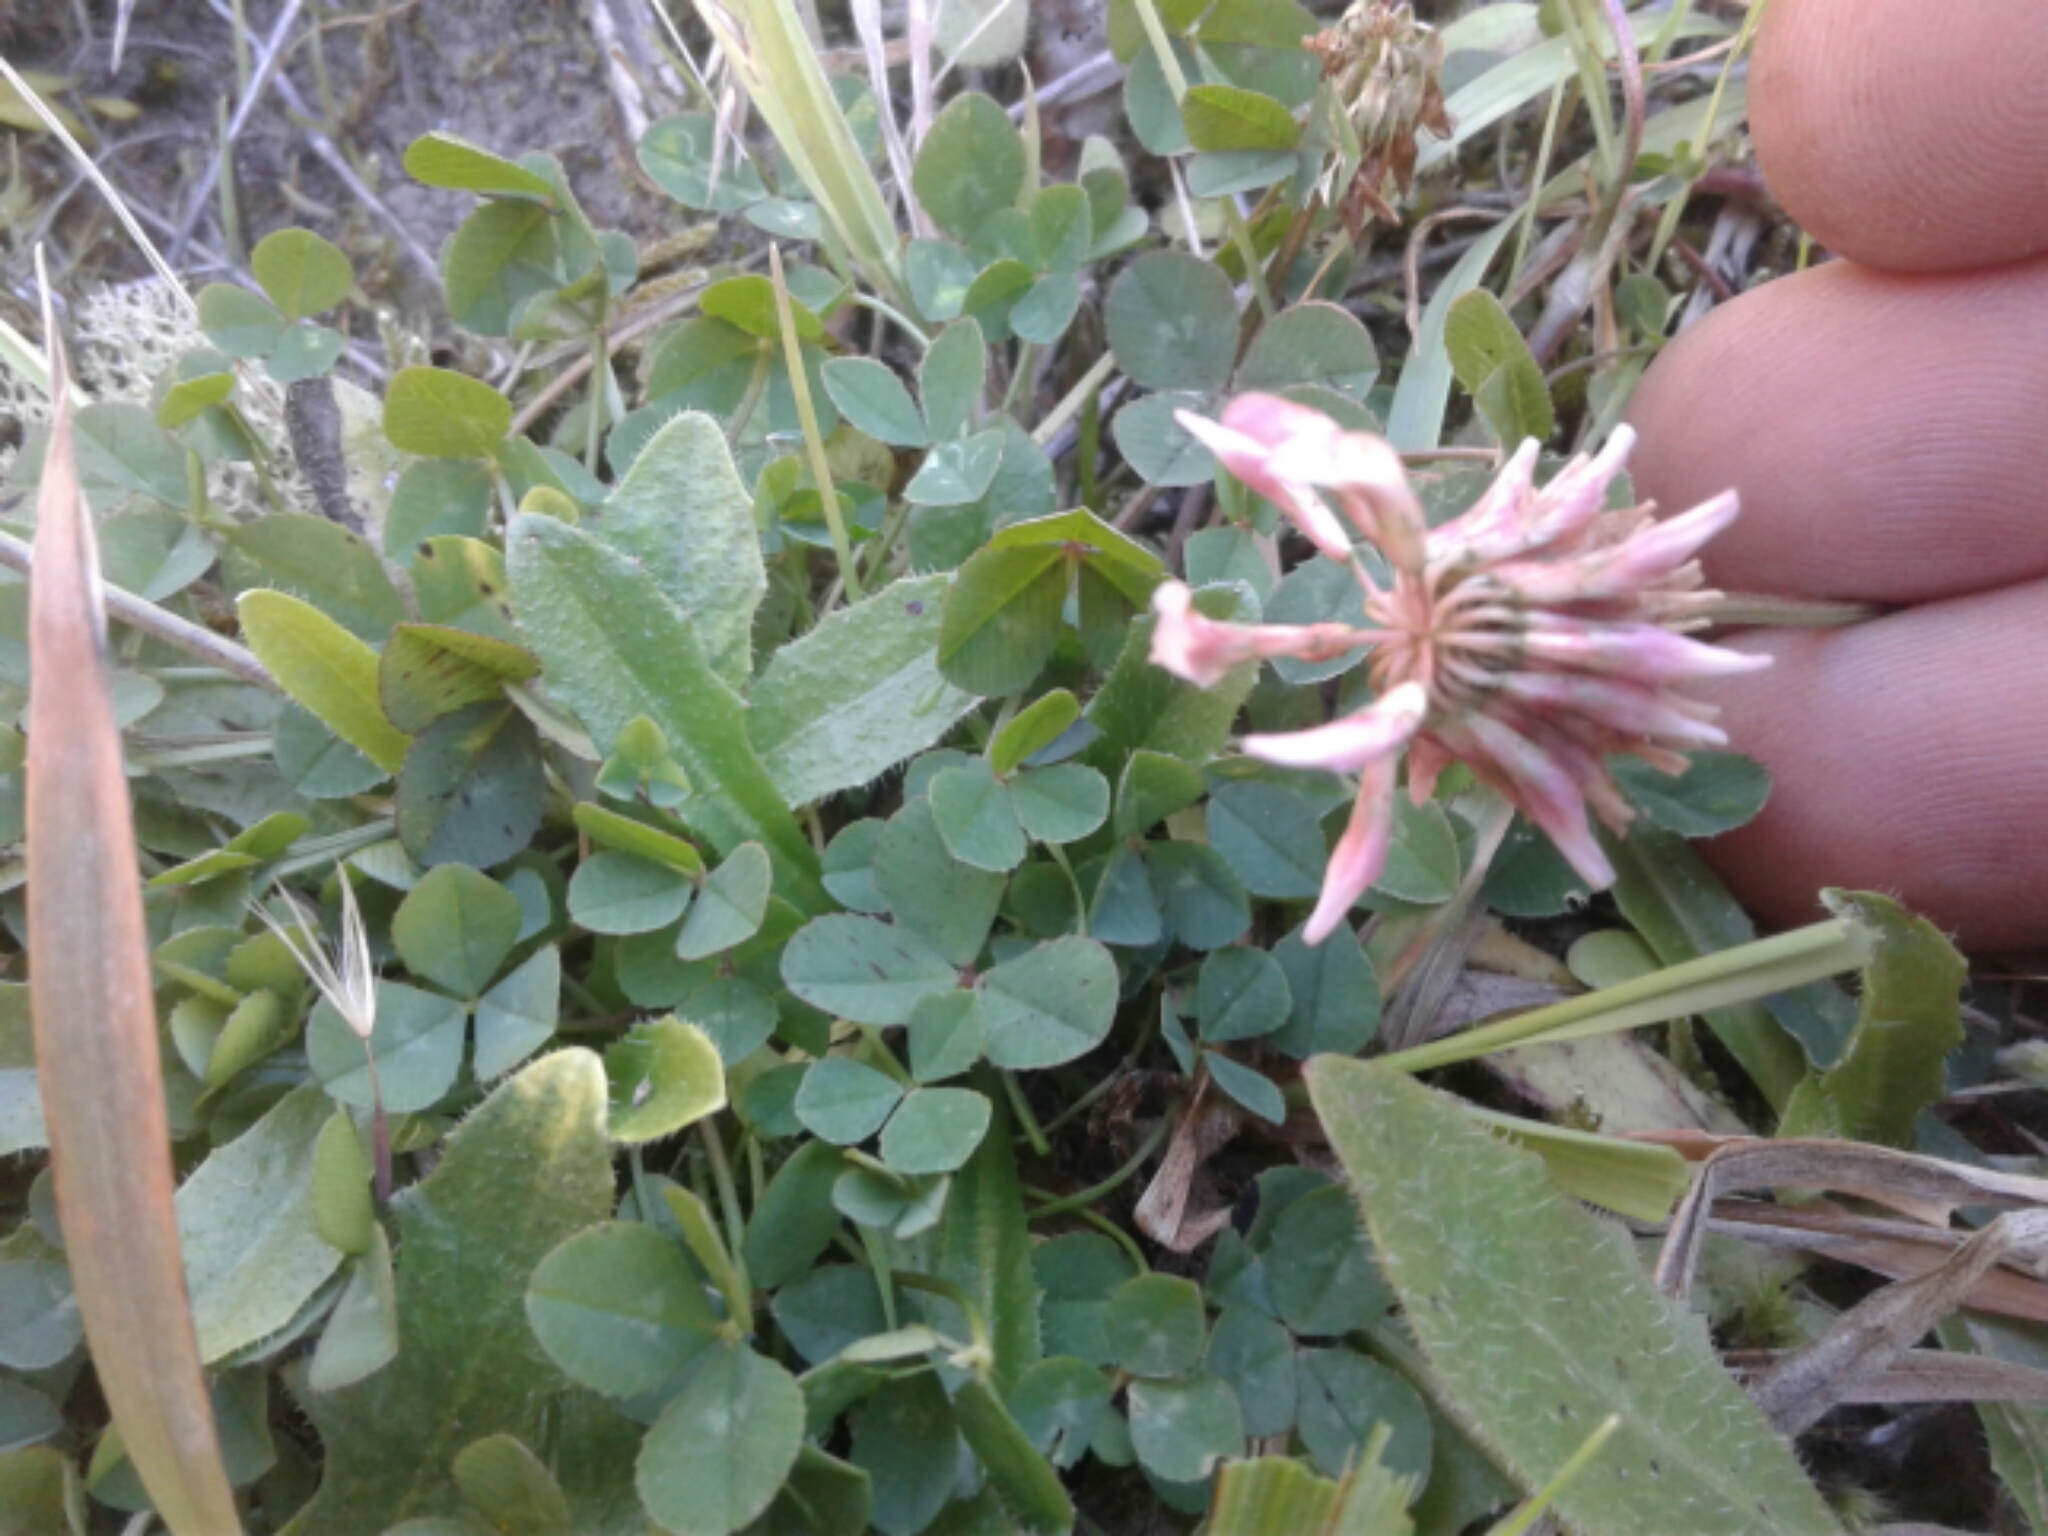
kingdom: Plantae
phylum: Tracheophyta
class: Magnoliopsida
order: Fabales
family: Fabaceae
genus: Trifolium
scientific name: Trifolium repens
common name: White clover
